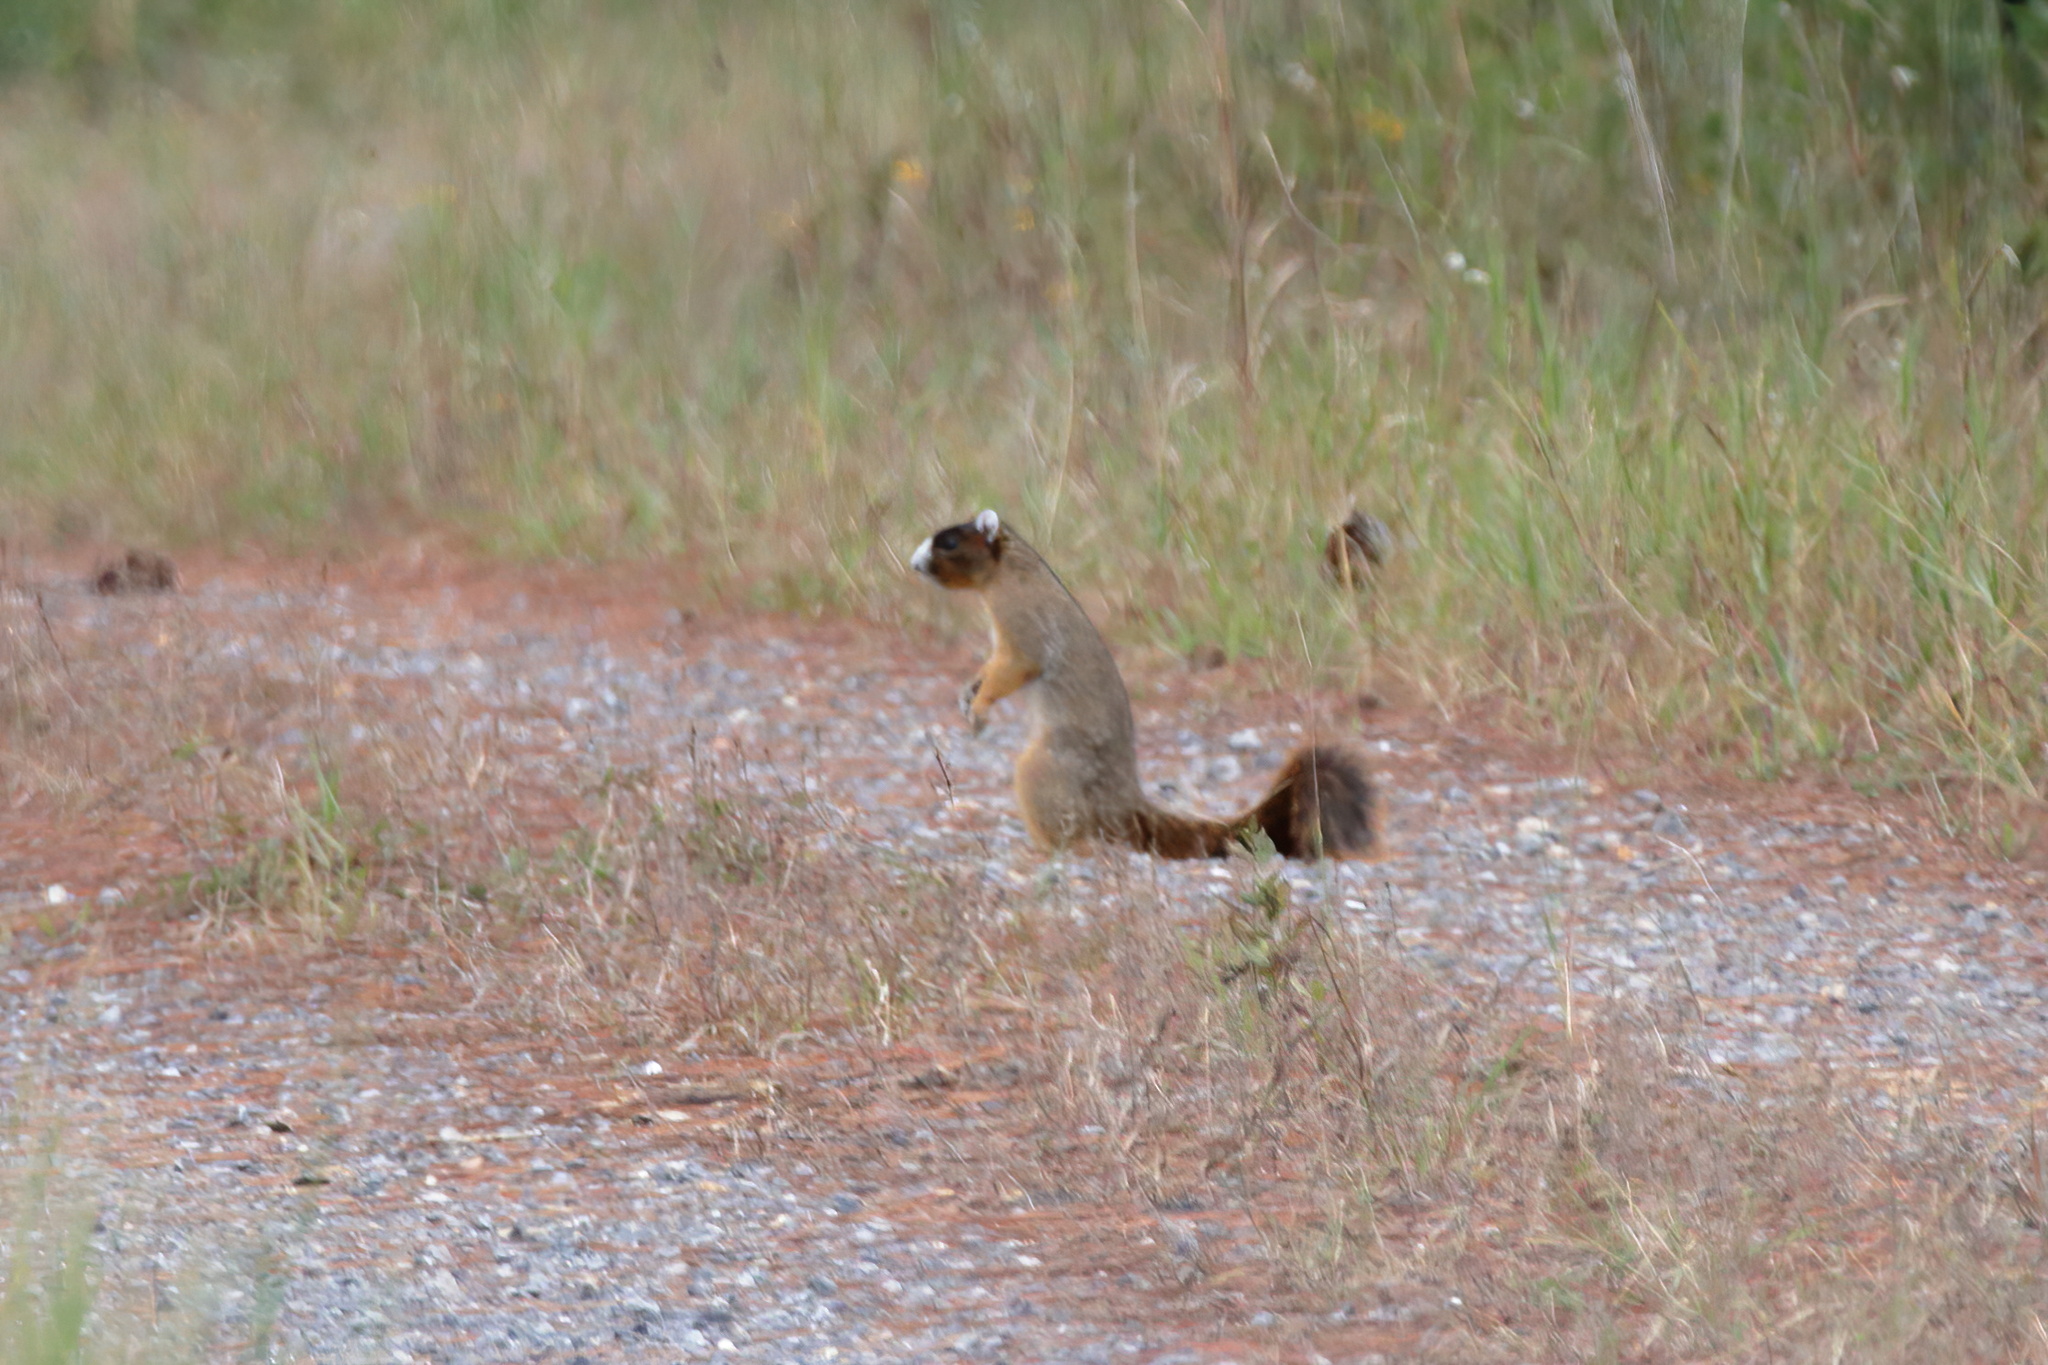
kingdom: Animalia
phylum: Chordata
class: Mammalia
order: Rodentia
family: Sciuridae
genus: Sciurus
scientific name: Sciurus niger
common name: Fox squirrel
